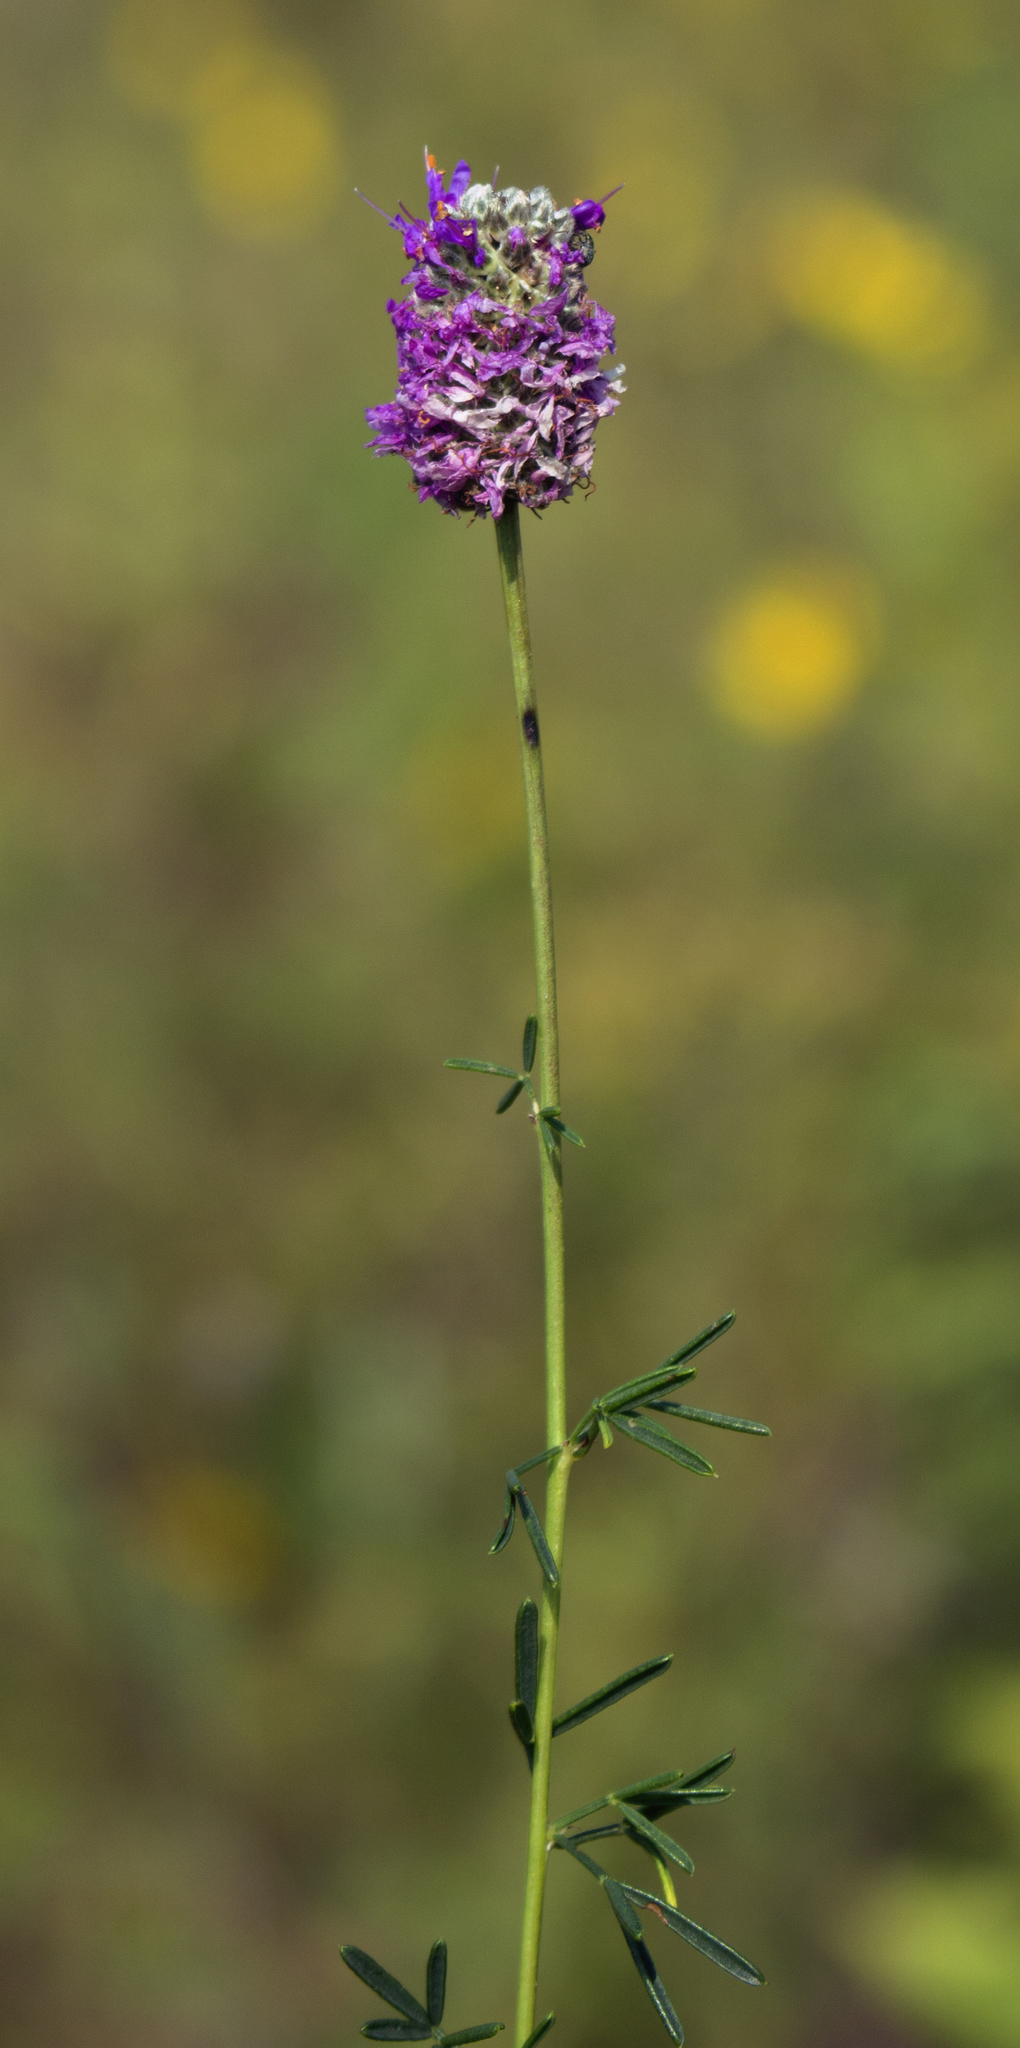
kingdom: Plantae
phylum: Tracheophyta
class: Magnoliopsida
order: Fabales
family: Fabaceae
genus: Dalea
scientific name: Dalea purpurea
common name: Purple prairie-clover
